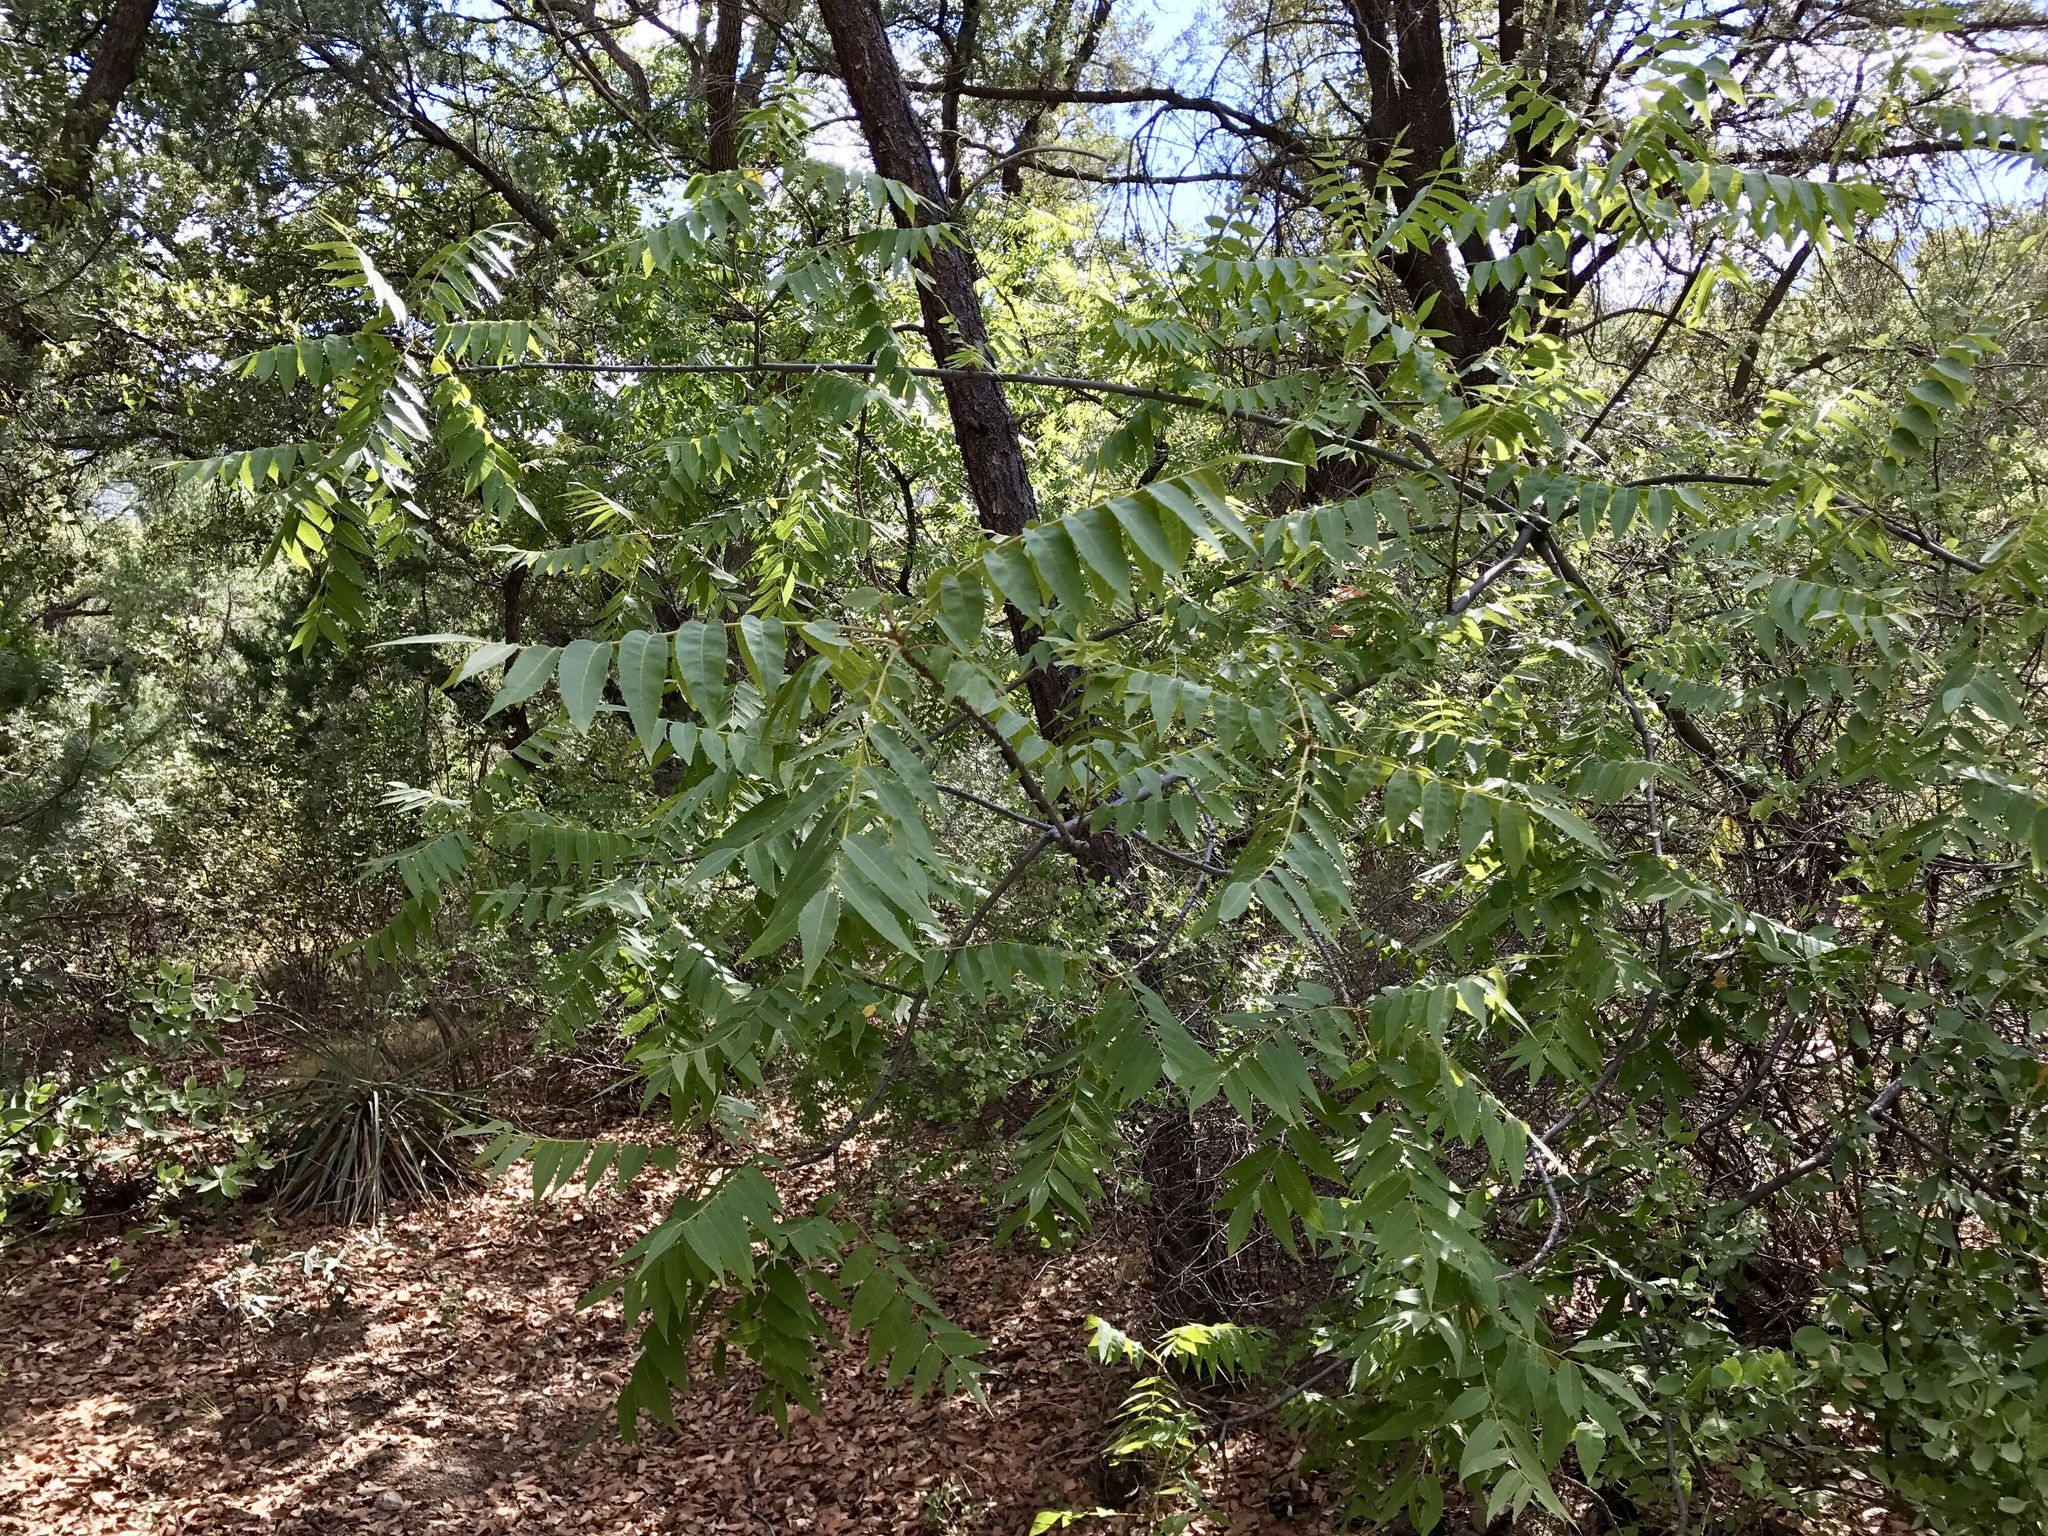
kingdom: Plantae
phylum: Tracheophyta
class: Magnoliopsida
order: Fagales
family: Juglandaceae
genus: Juglans
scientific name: Juglans major
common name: Arizona walnut
